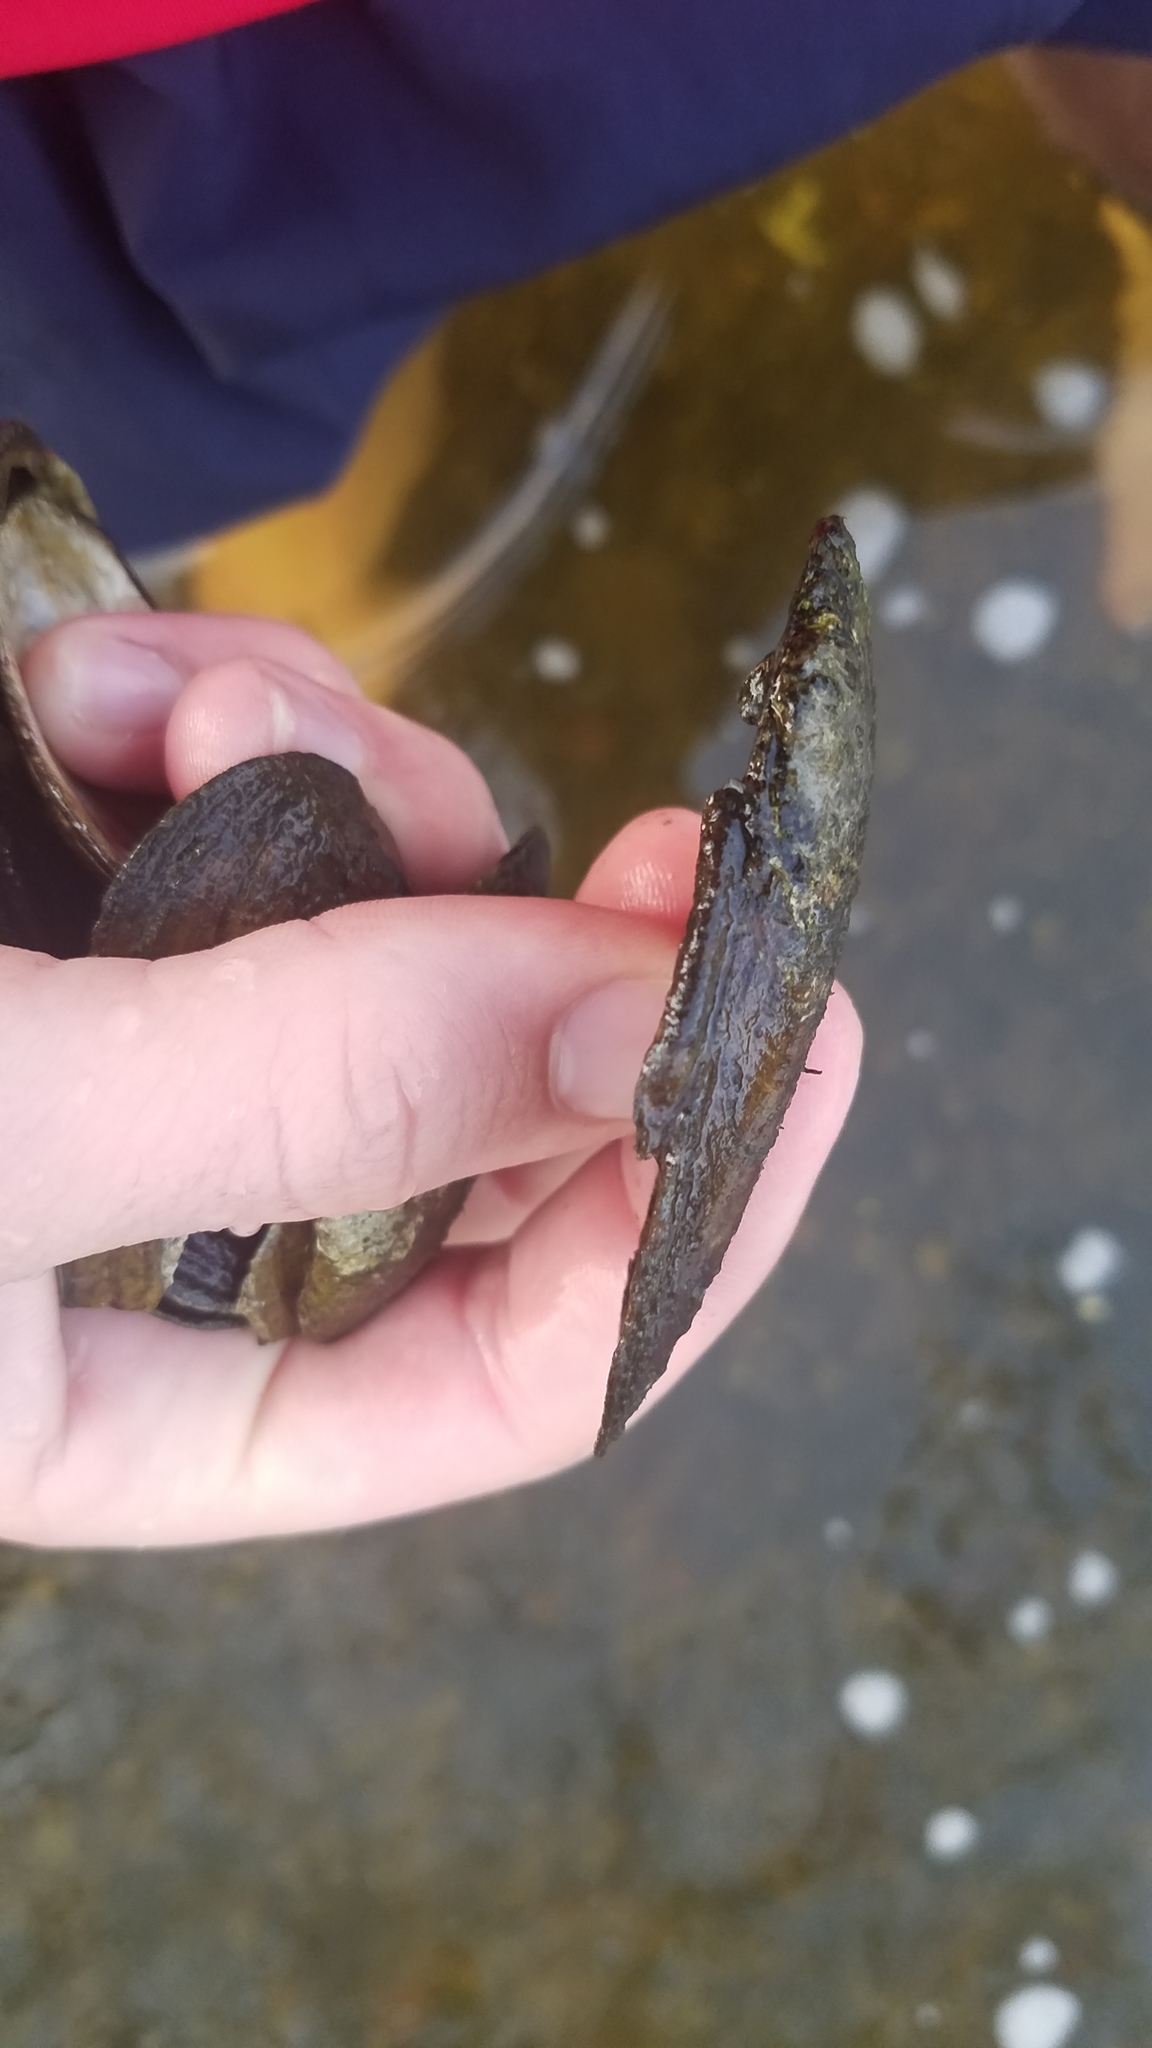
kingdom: Animalia
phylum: Mollusca
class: Bivalvia
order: Unionida
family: Unionidae
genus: Eurynia
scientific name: Eurynia dilatata
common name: Spike
